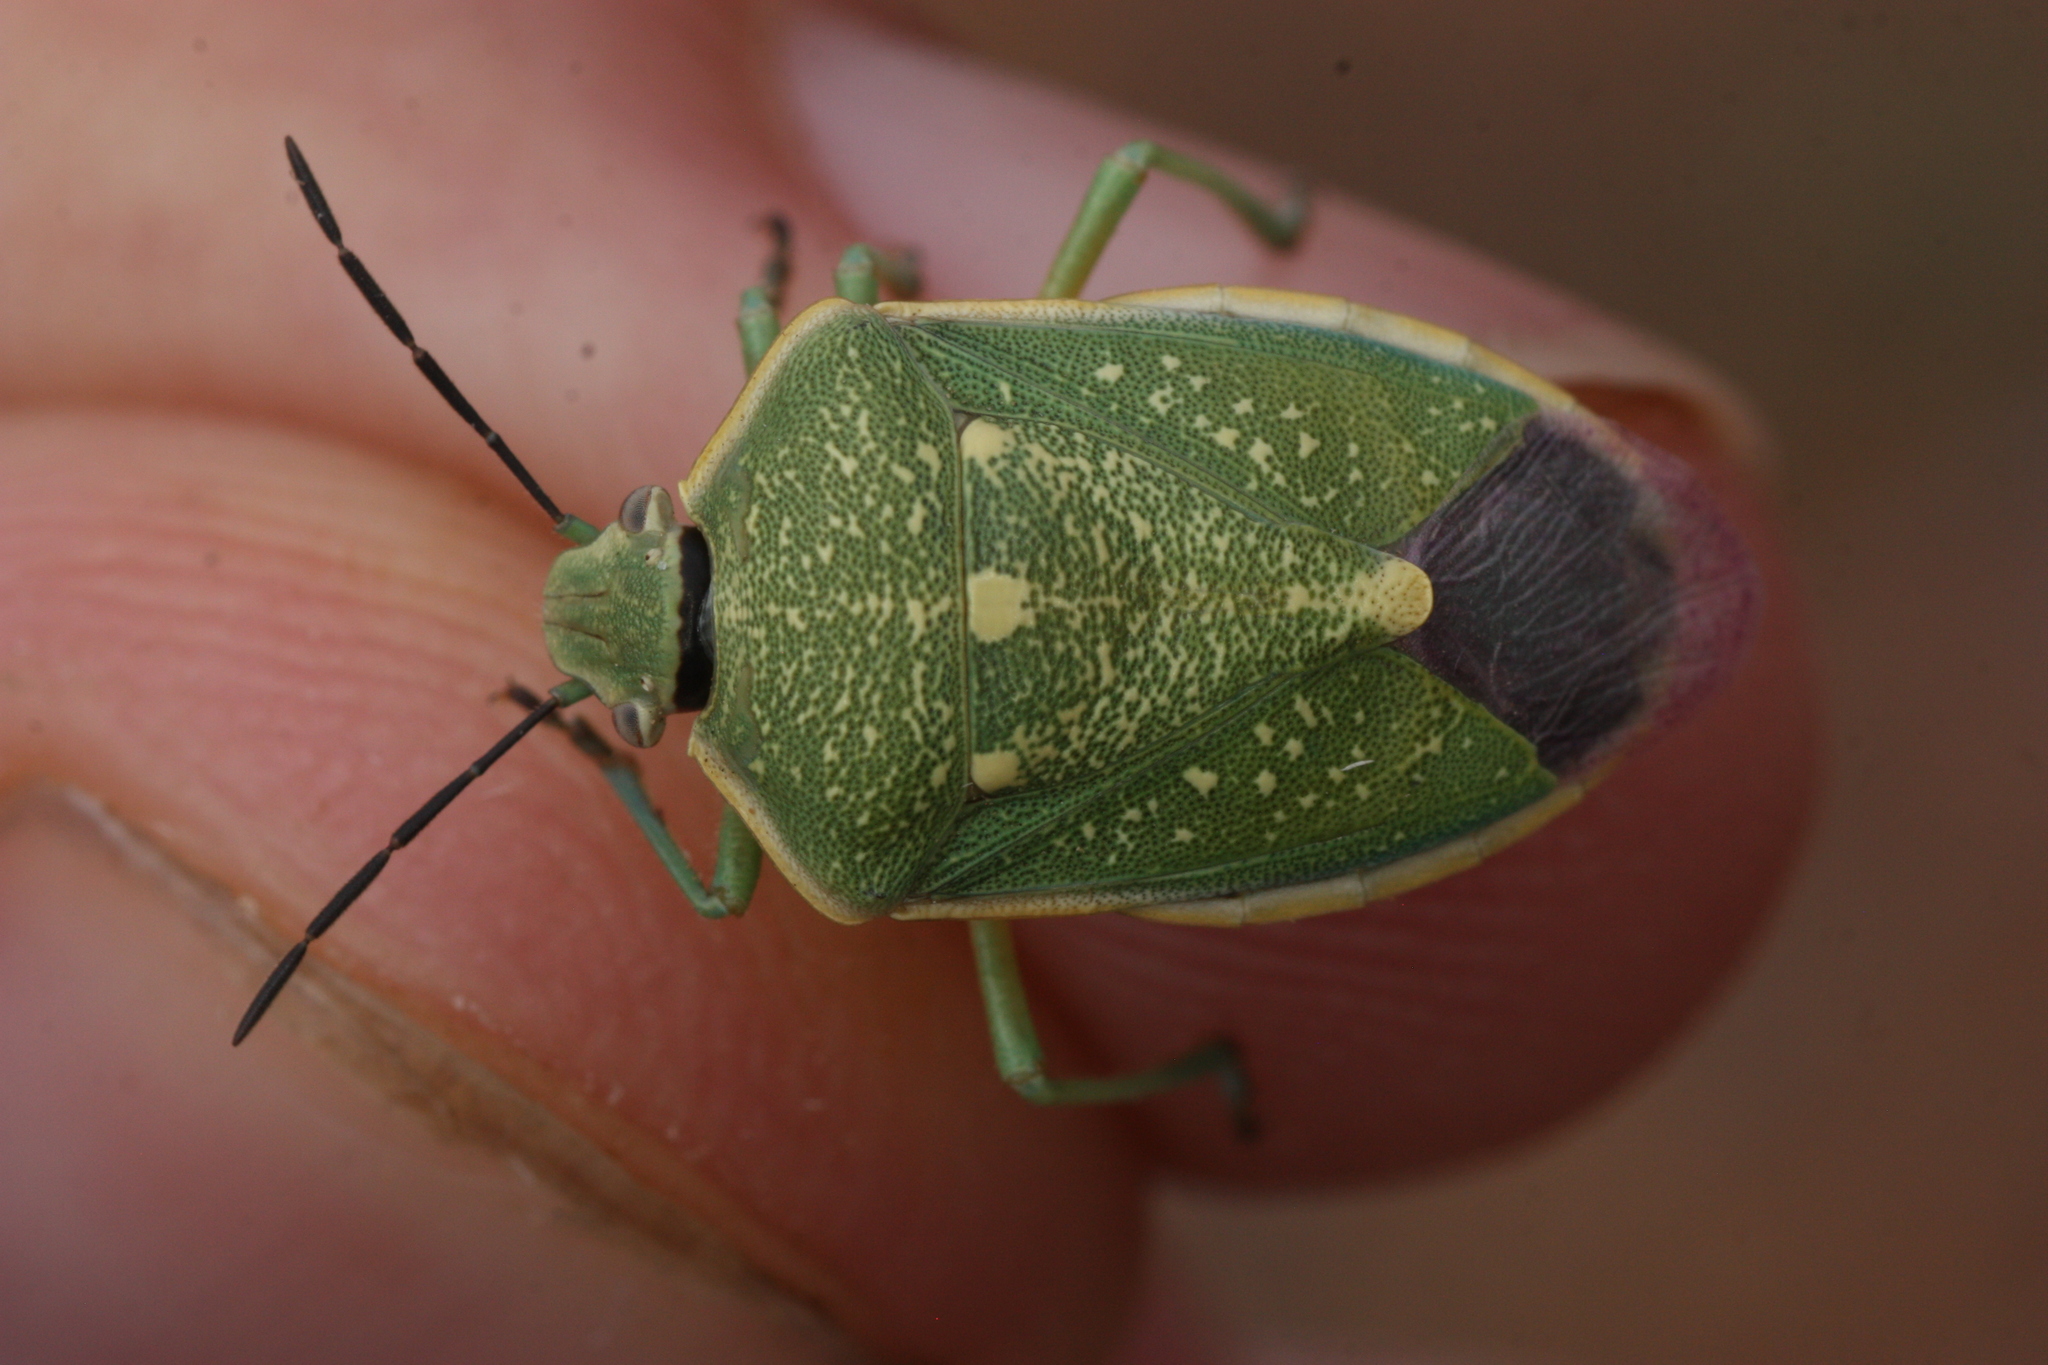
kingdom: Animalia
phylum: Arthropoda
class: Insecta
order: Hemiptera
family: Pentatomidae
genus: Chlorochroa
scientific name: Chlorochroa sayi
